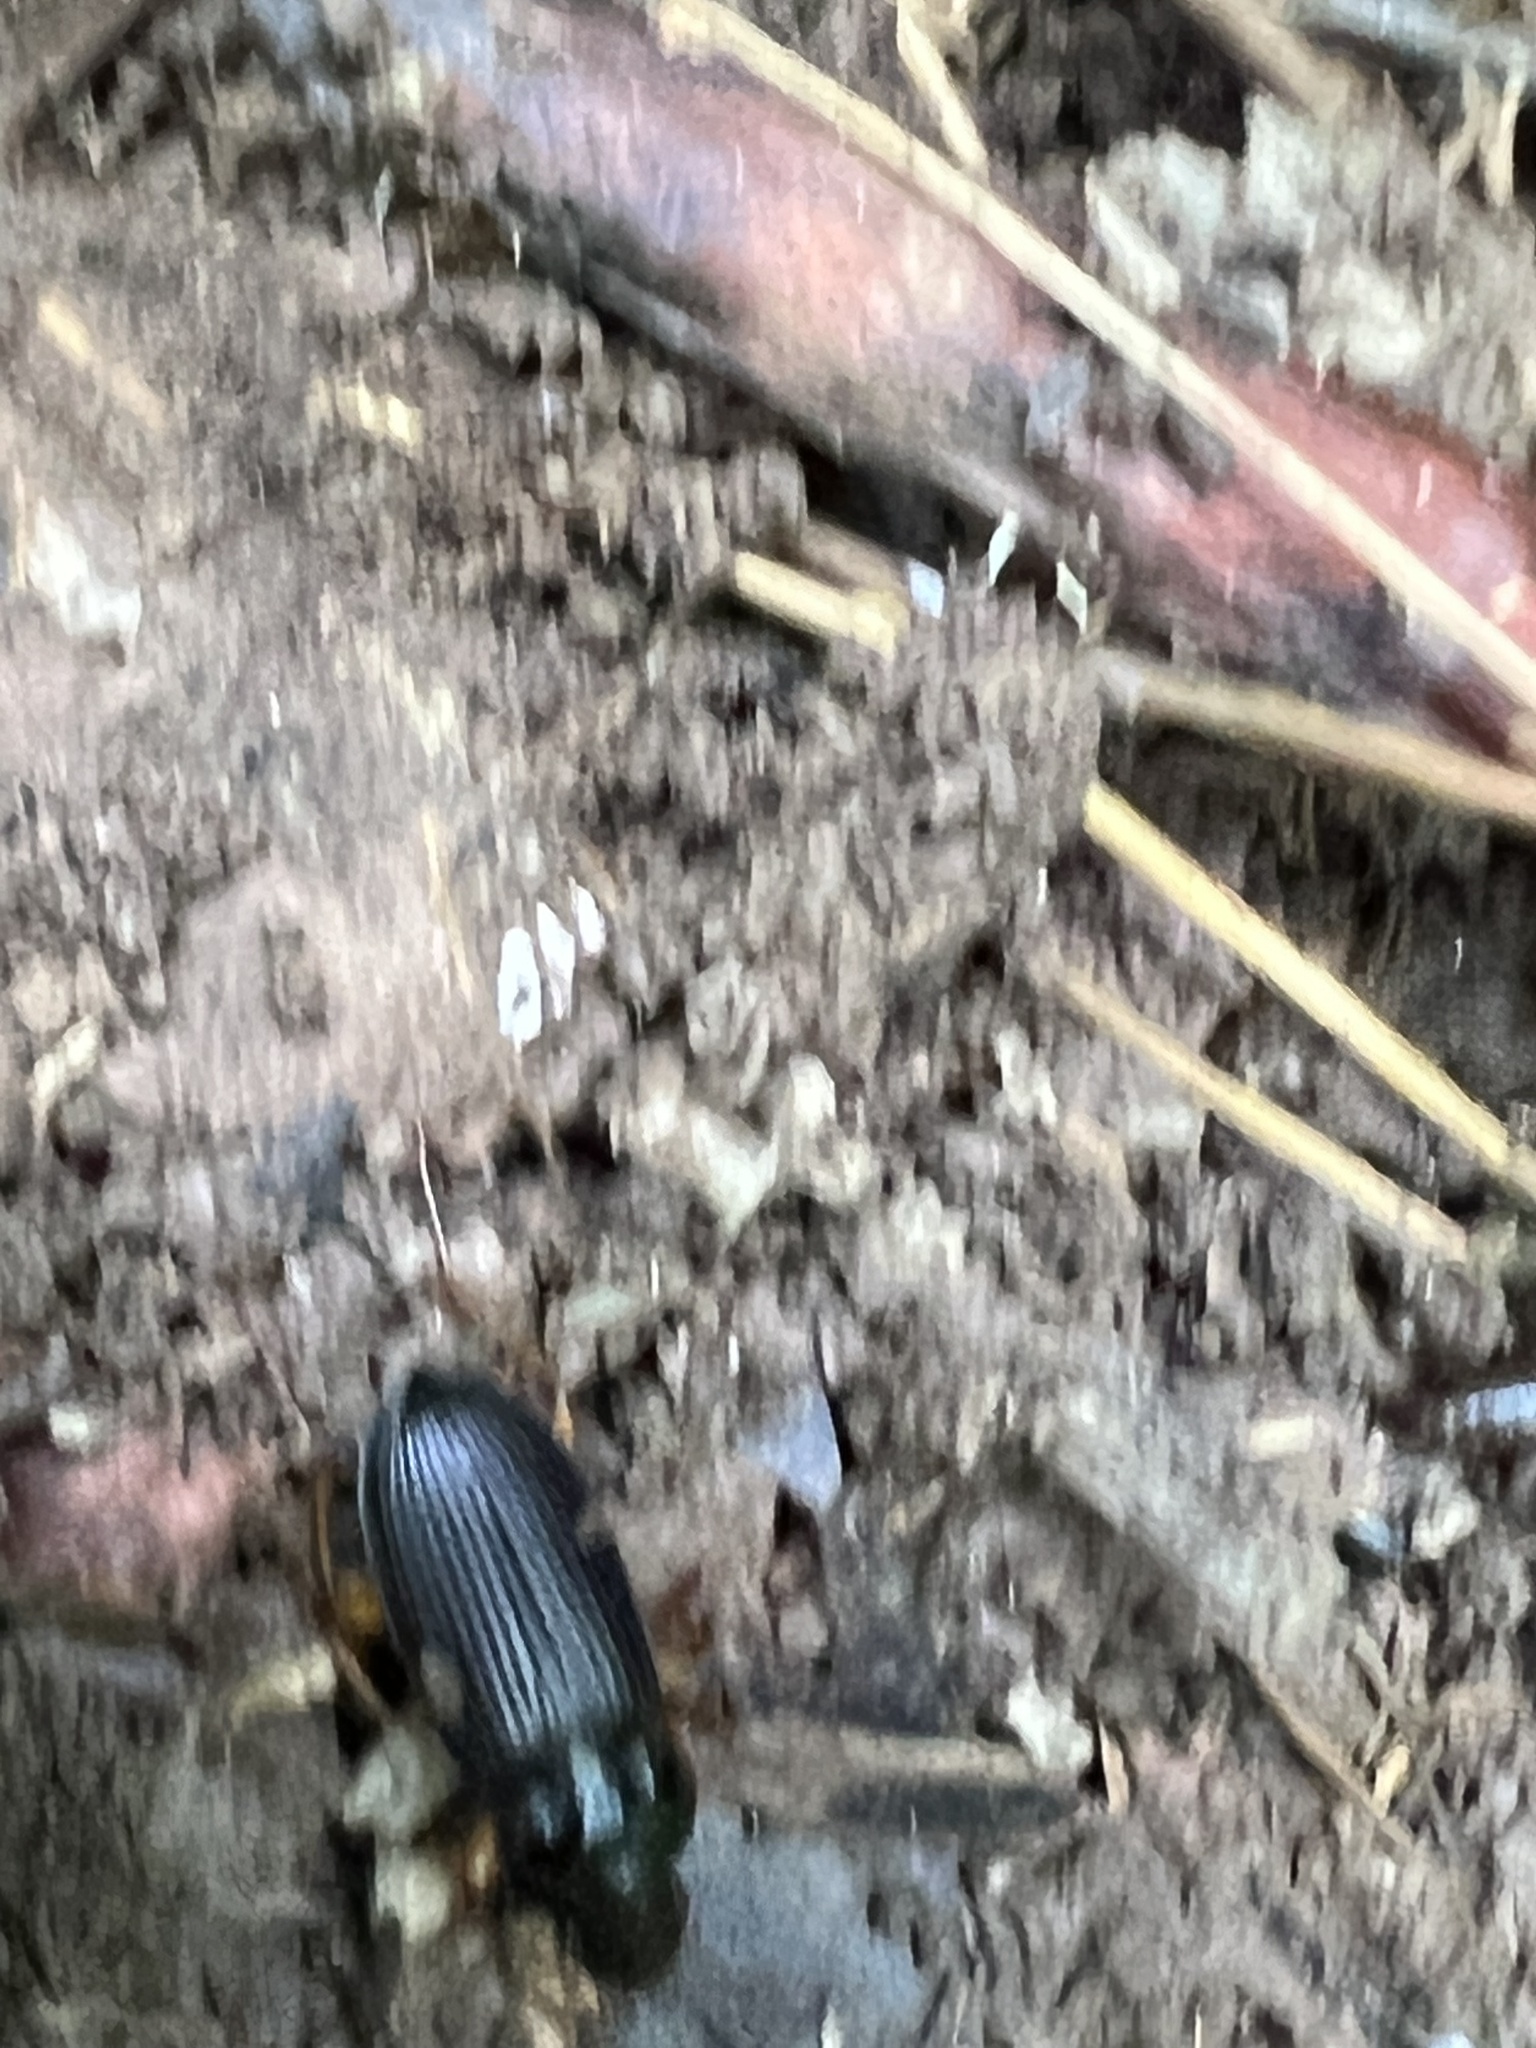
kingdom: Animalia
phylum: Arthropoda
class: Insecta
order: Coleoptera
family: Carabidae
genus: Harpalus
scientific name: Harpalus pensylvanicus
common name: Pennsylvania dingy ground beetle
